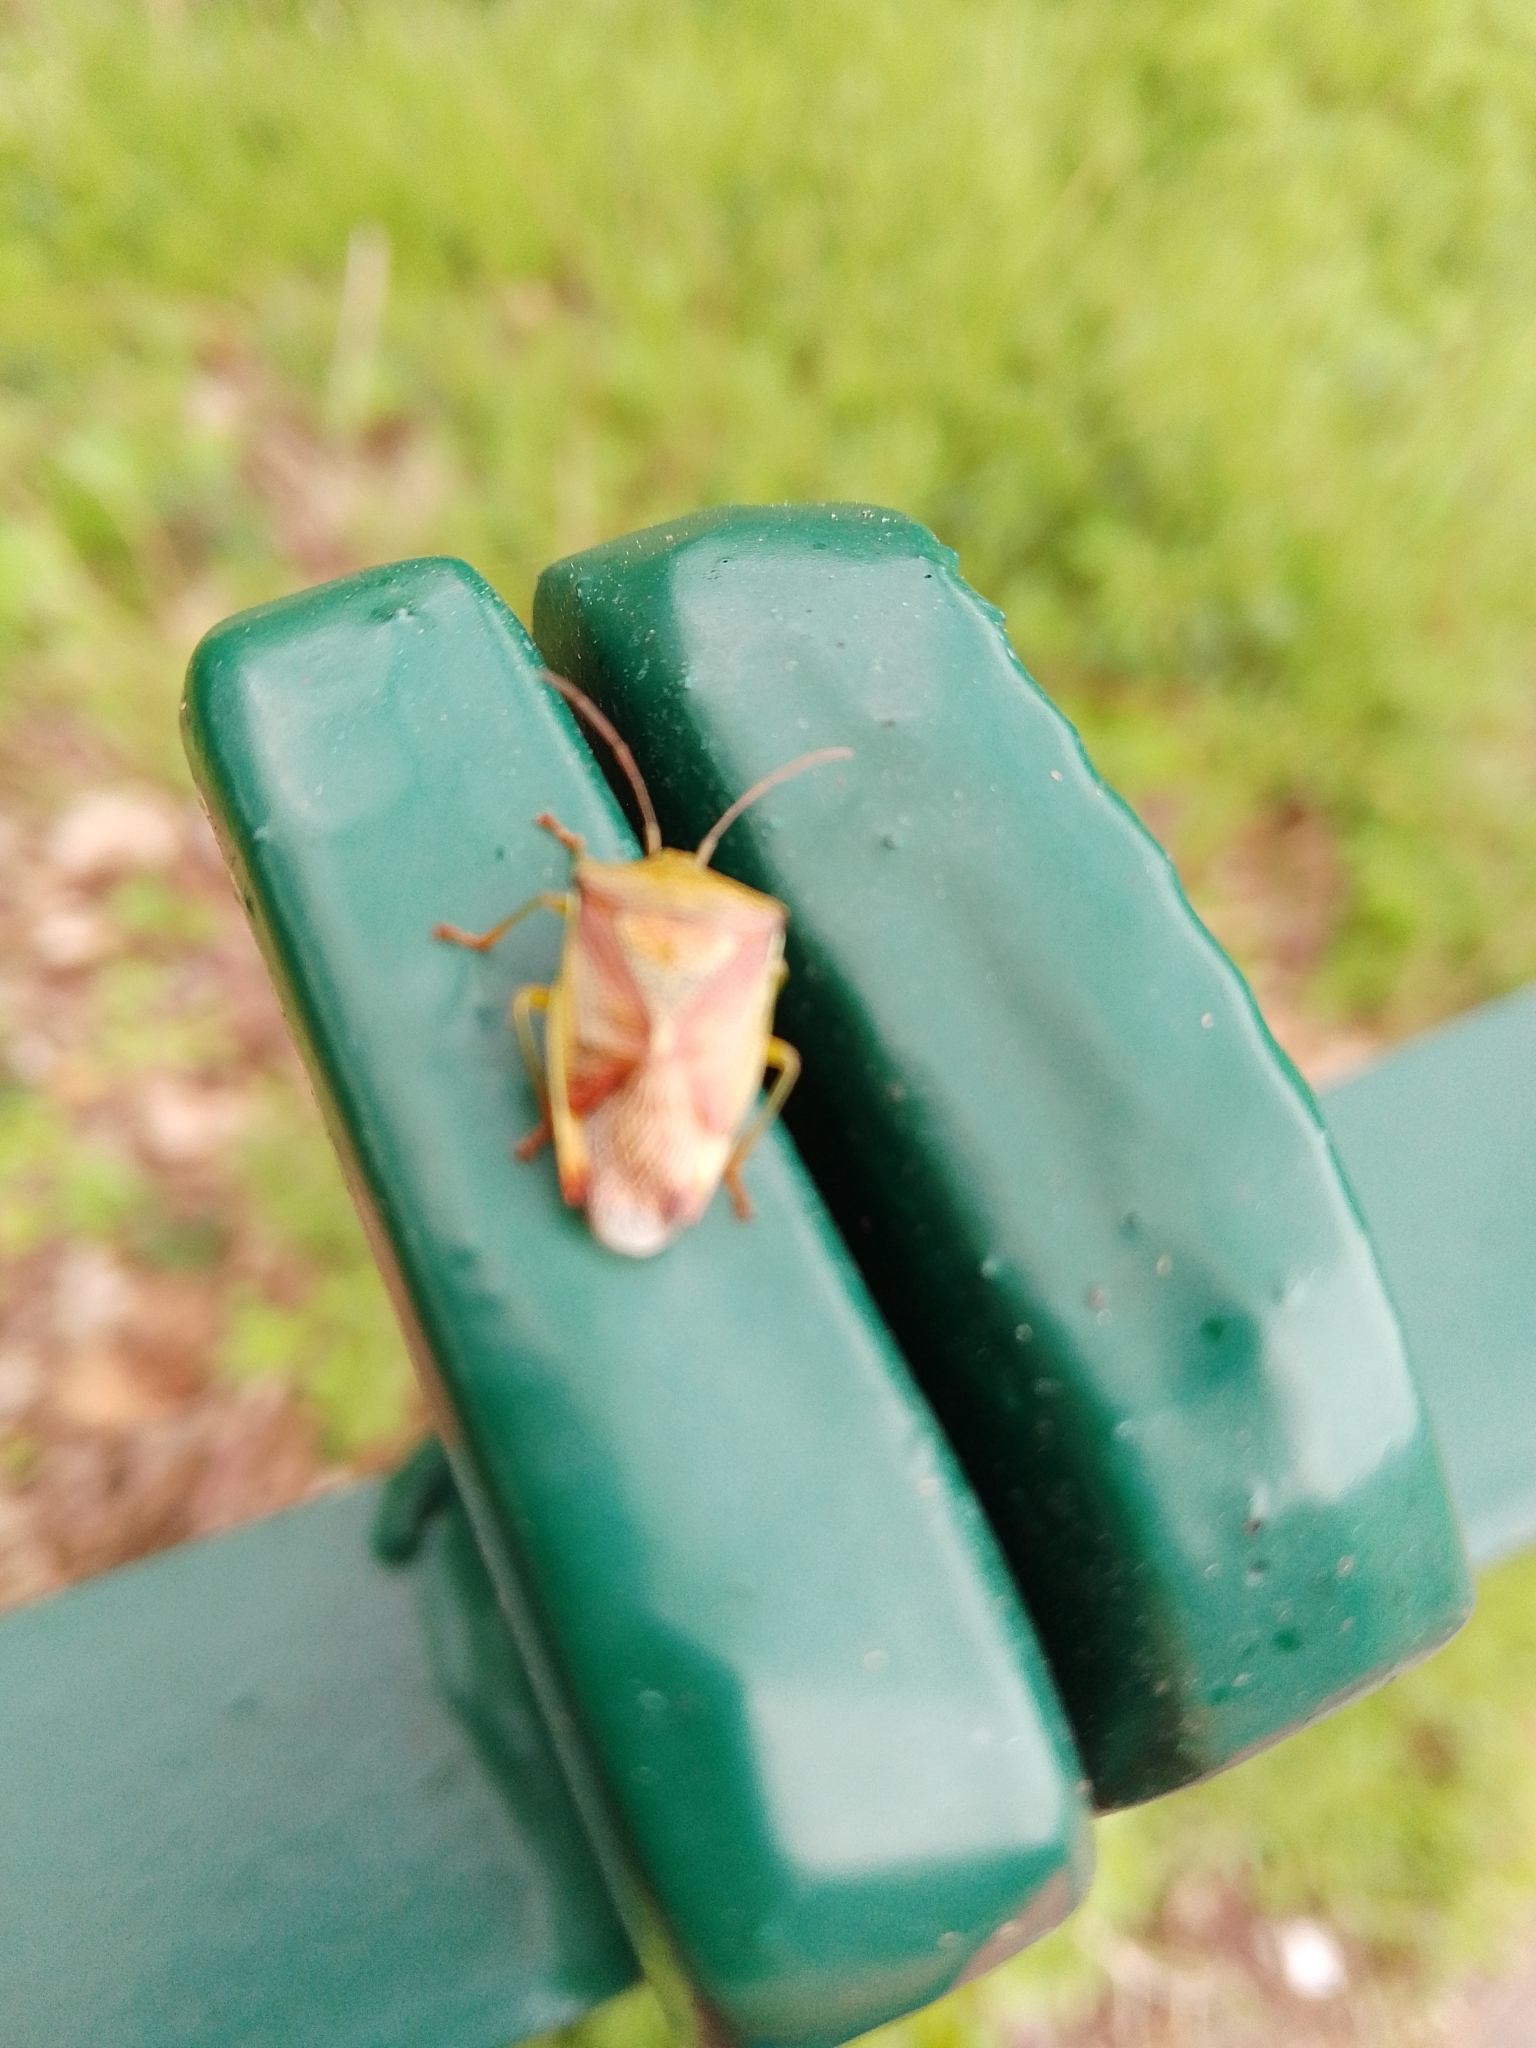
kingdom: Animalia
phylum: Arthropoda
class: Insecta
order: Hemiptera
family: Acanthosomatidae
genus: Elasmostethus
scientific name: Elasmostethus interstinctus
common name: Birch shieldbug
